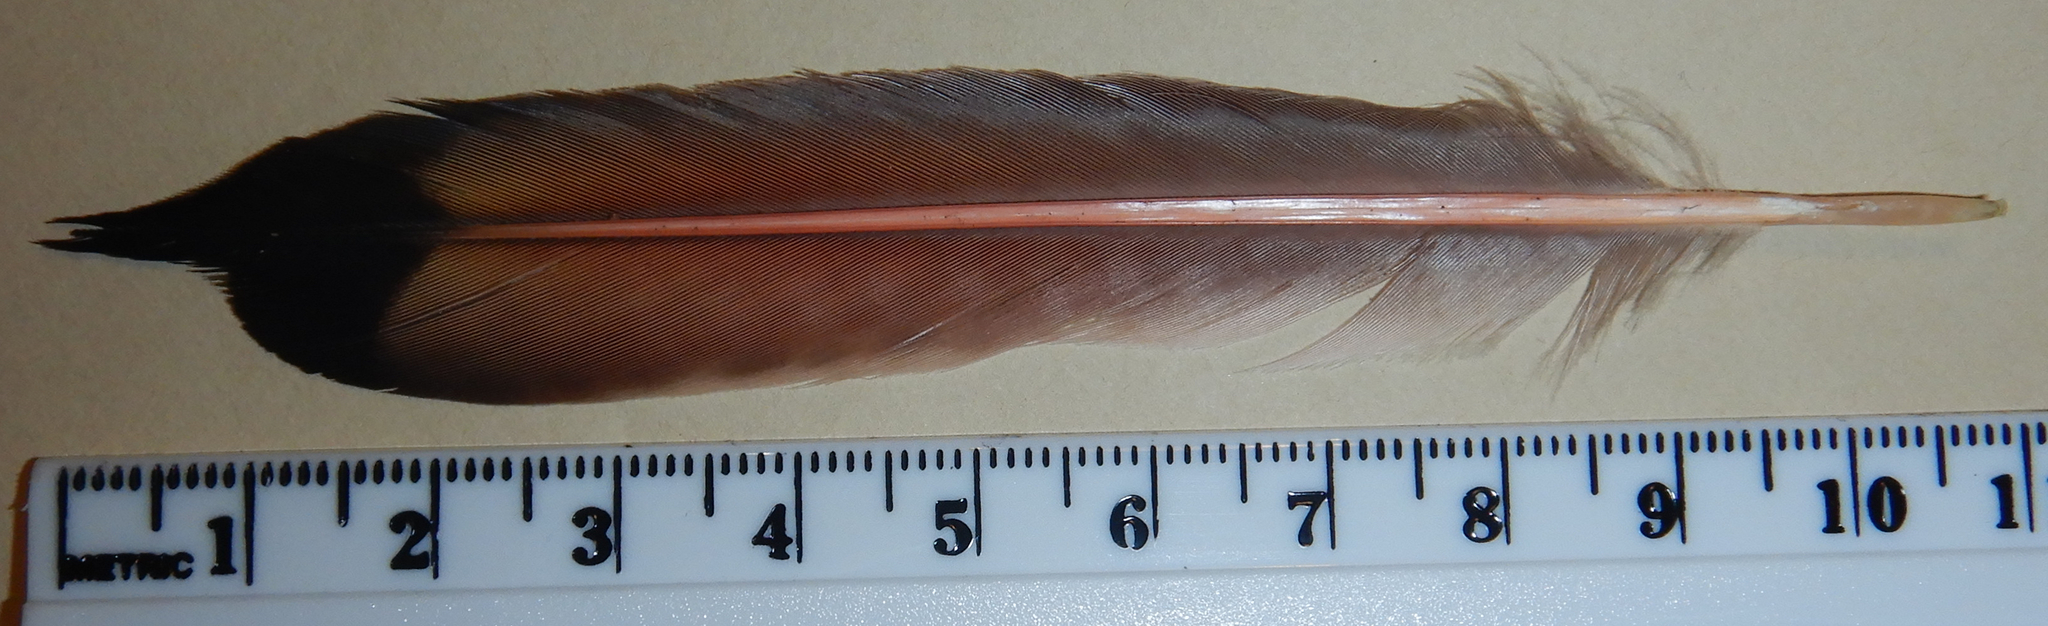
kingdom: Animalia
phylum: Chordata
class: Aves
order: Piciformes
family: Picidae
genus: Colaptes
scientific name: Colaptes auratus
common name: Northern flicker
